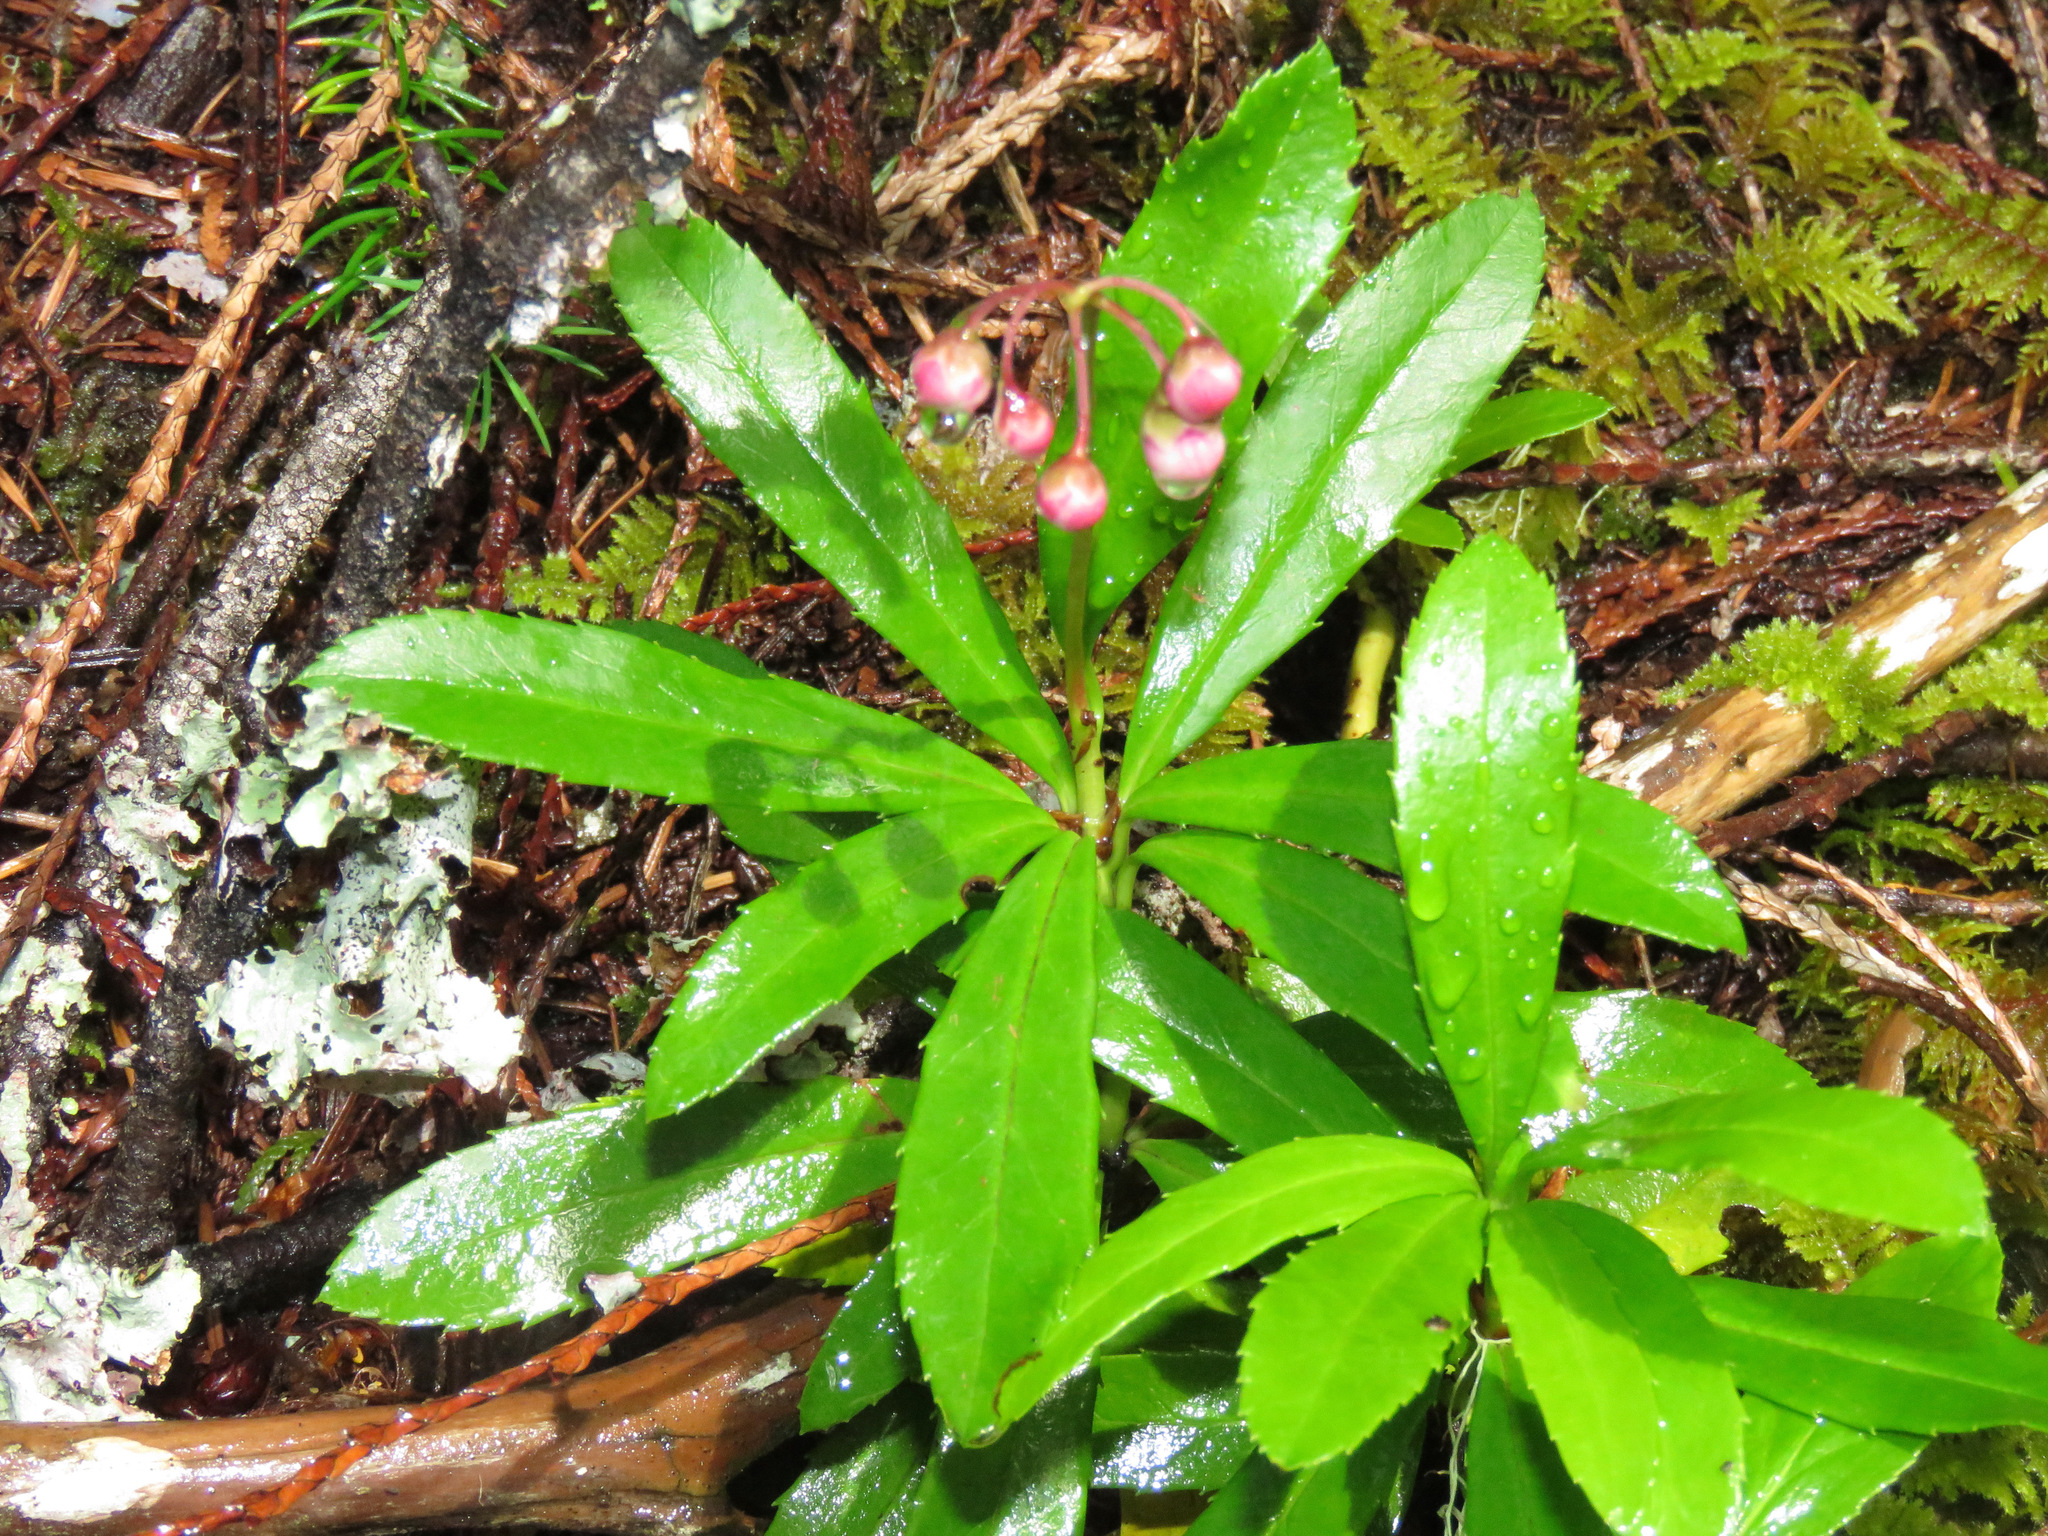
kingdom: Plantae
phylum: Tracheophyta
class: Magnoliopsida
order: Ericales
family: Ericaceae
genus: Chimaphila
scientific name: Chimaphila umbellata
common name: Pipsissewa
